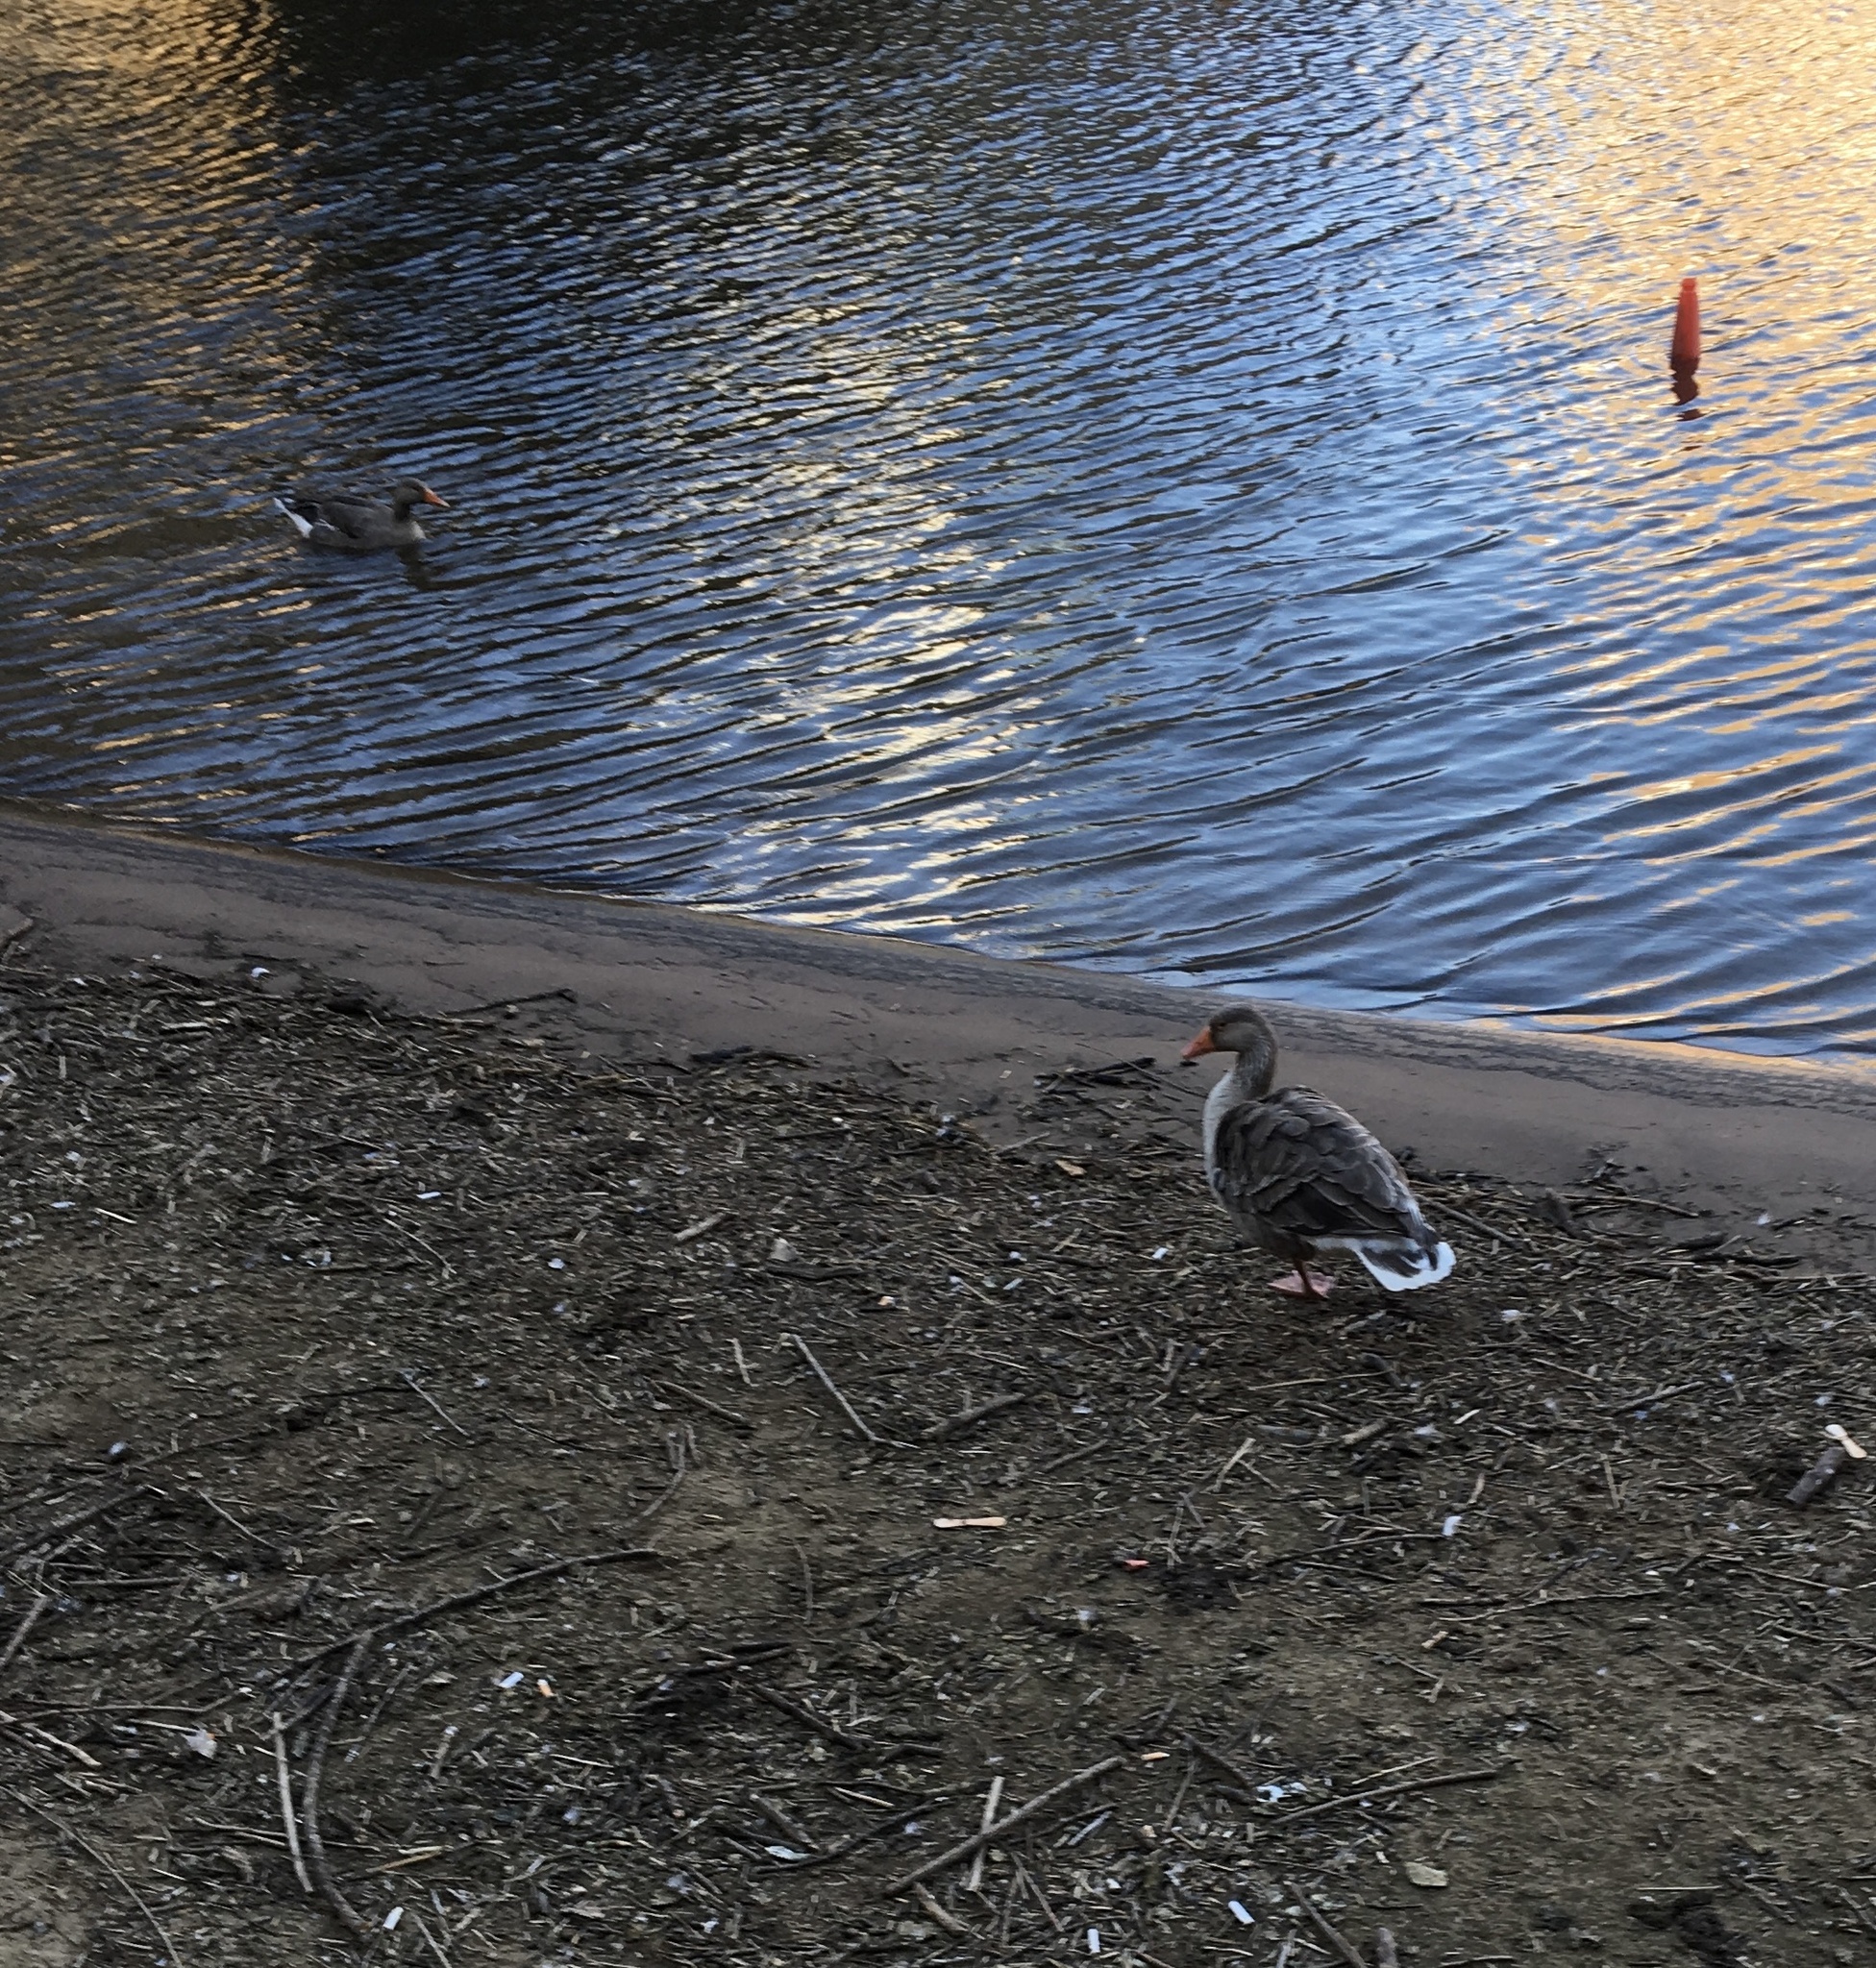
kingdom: Animalia
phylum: Chordata
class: Aves
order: Anseriformes
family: Anatidae
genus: Anser
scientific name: Anser anser
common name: Greylag goose
